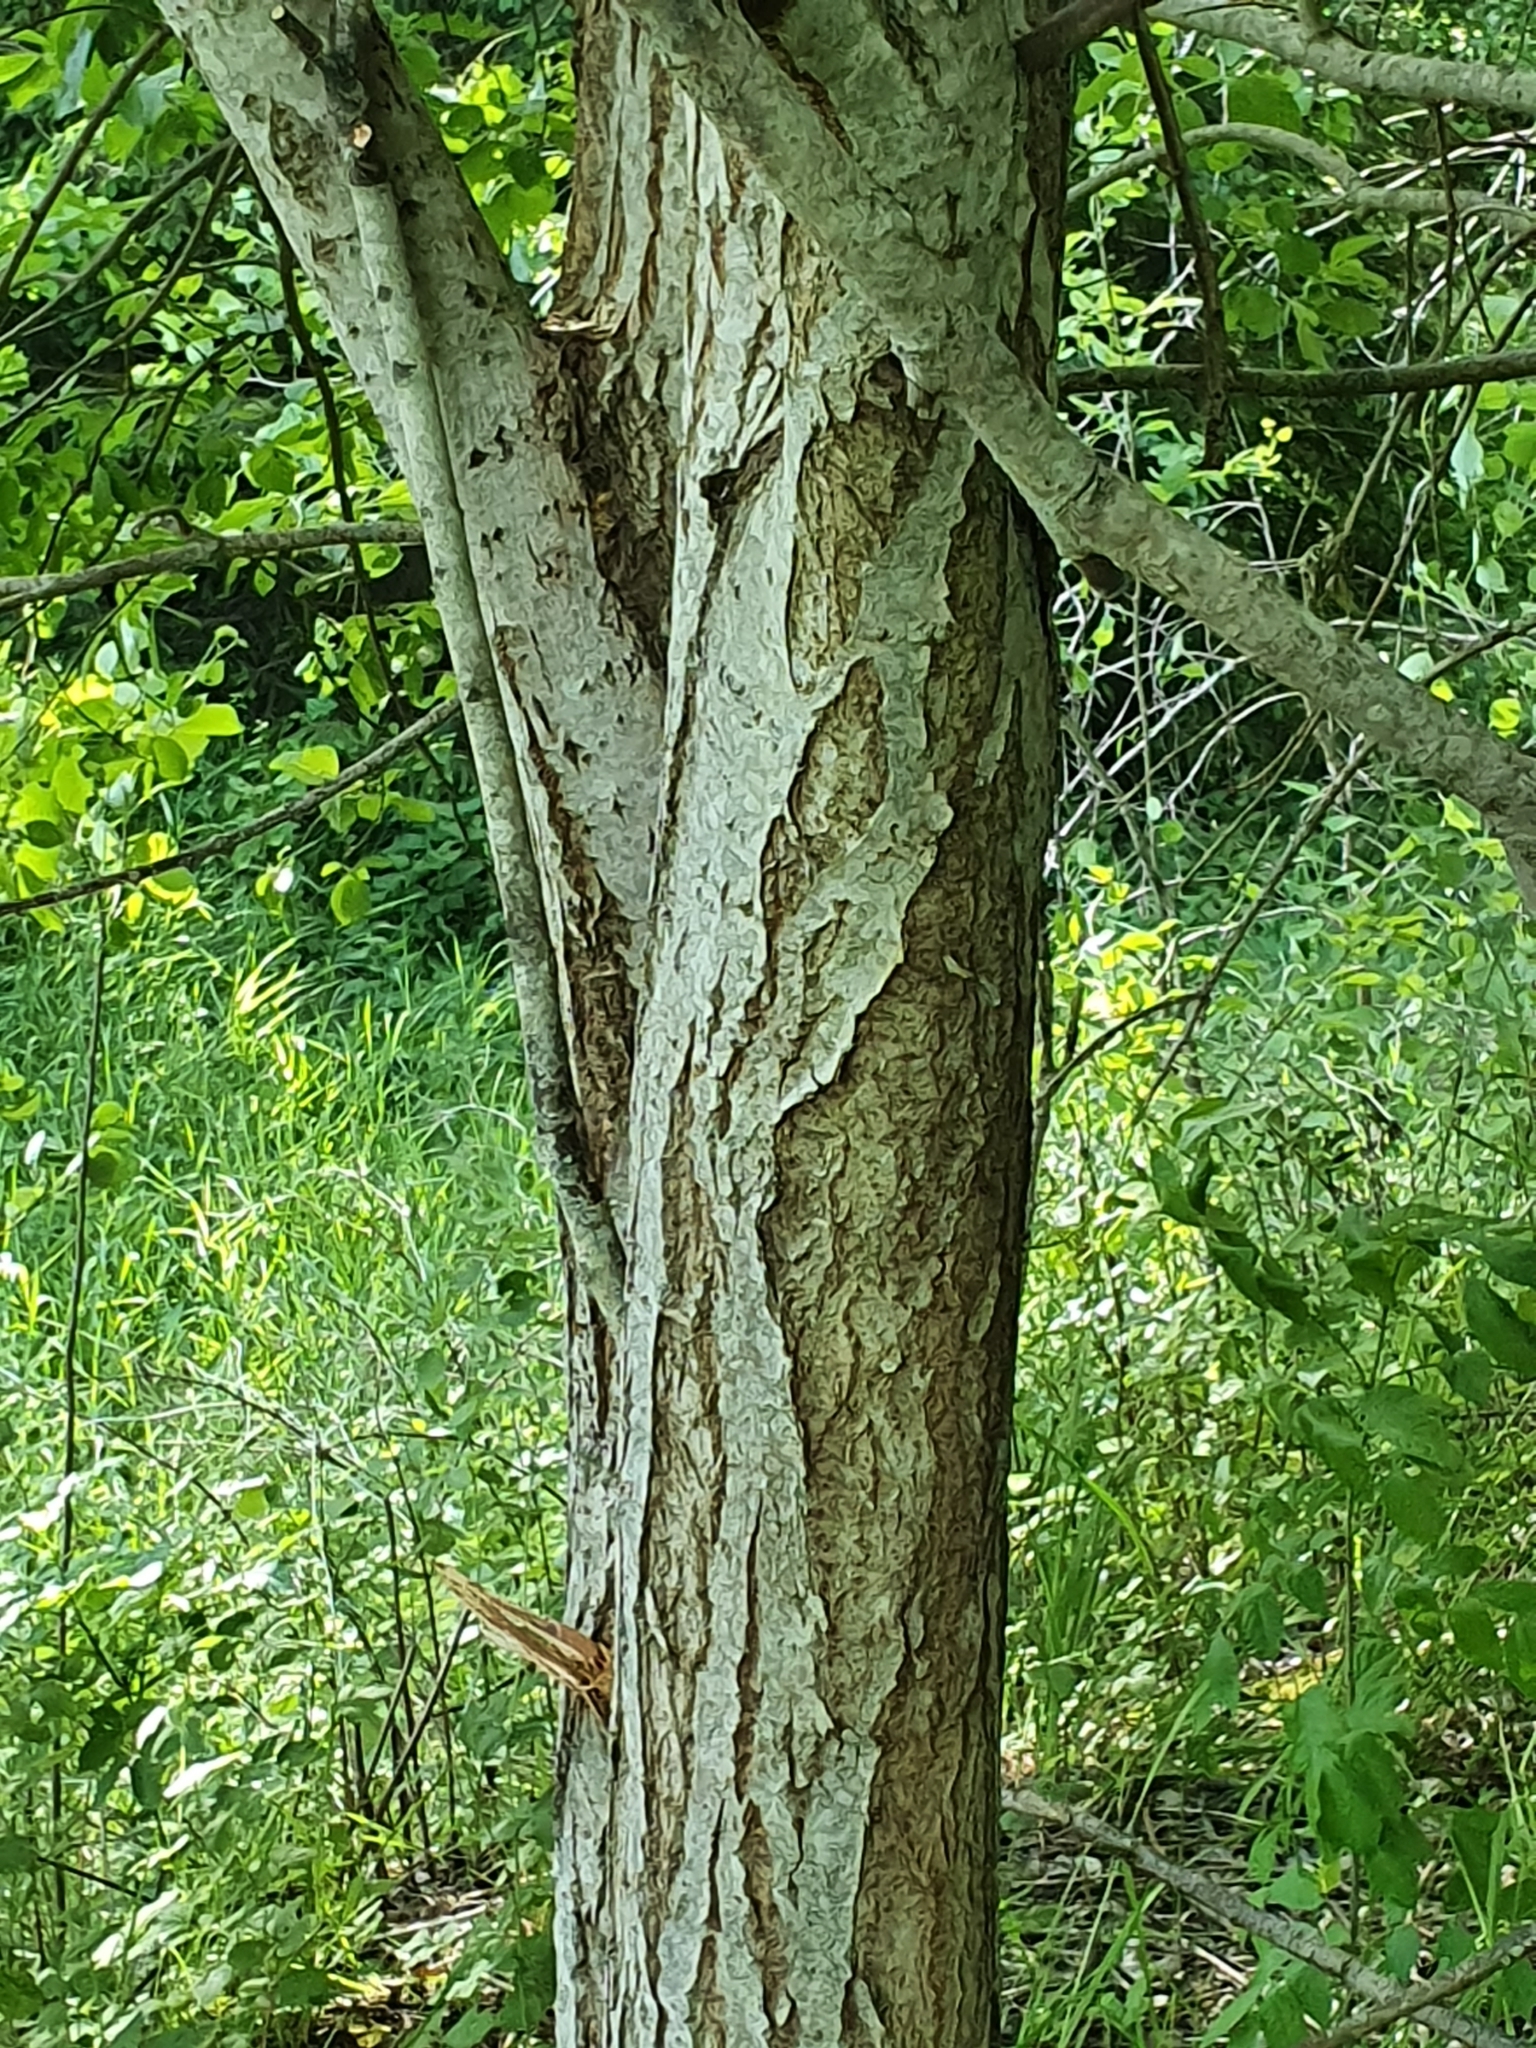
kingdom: Plantae
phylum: Tracheophyta
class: Magnoliopsida
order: Malpighiales
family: Salicaceae
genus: Salix
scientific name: Salix caprea
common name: Goat willow
